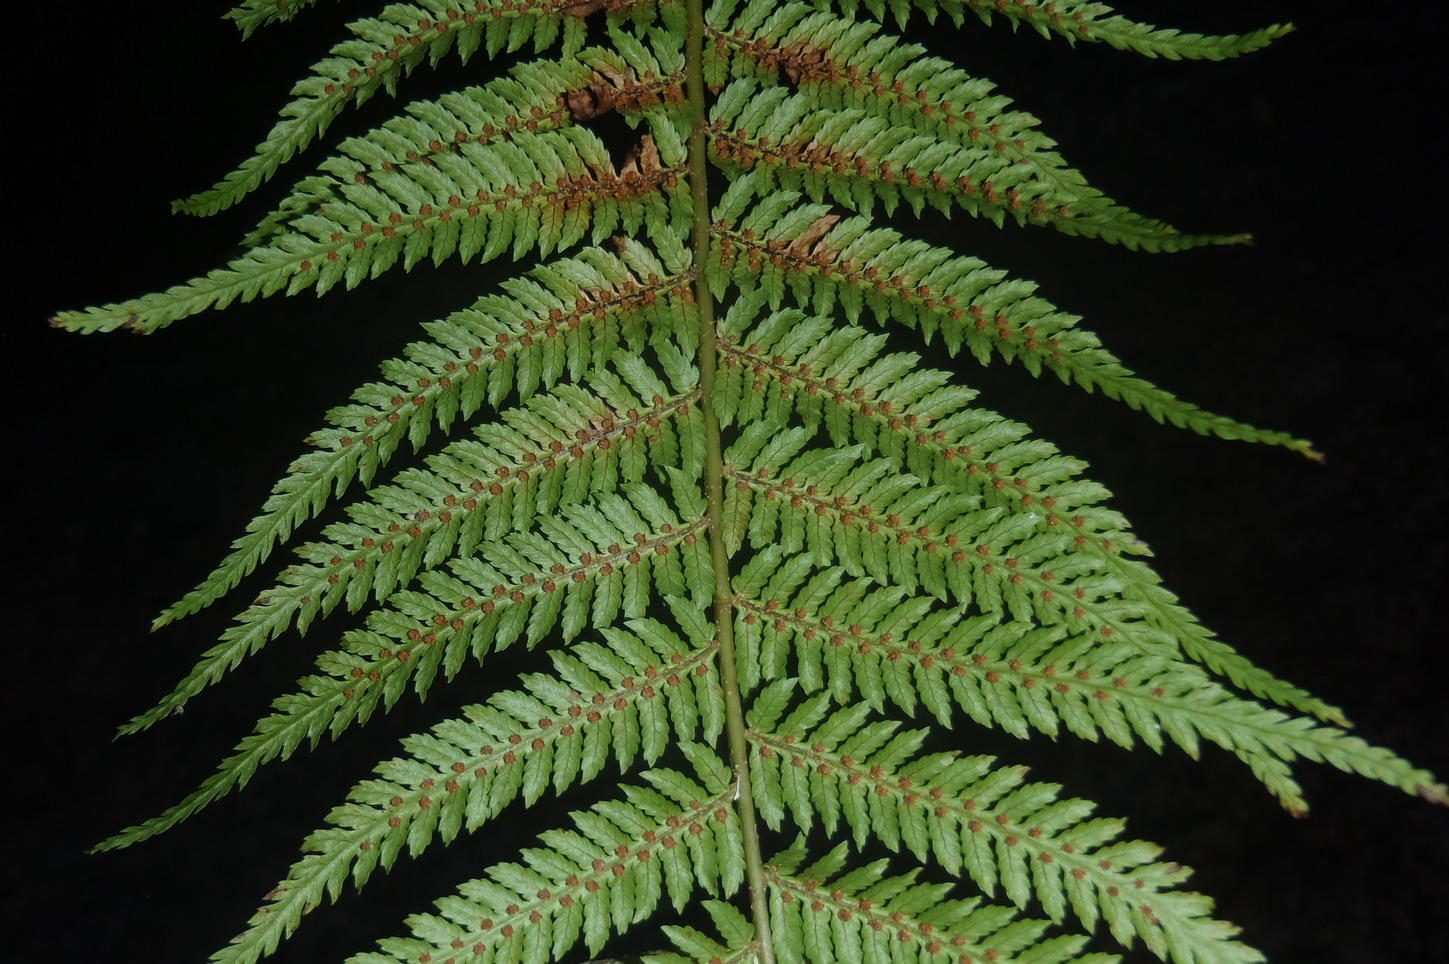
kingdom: Plantae
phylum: Tracheophyta
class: Polypodiopsida
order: Cyatheales
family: Cyatheaceae
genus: Gymnosphaera
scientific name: Gymnosphaera capensis
